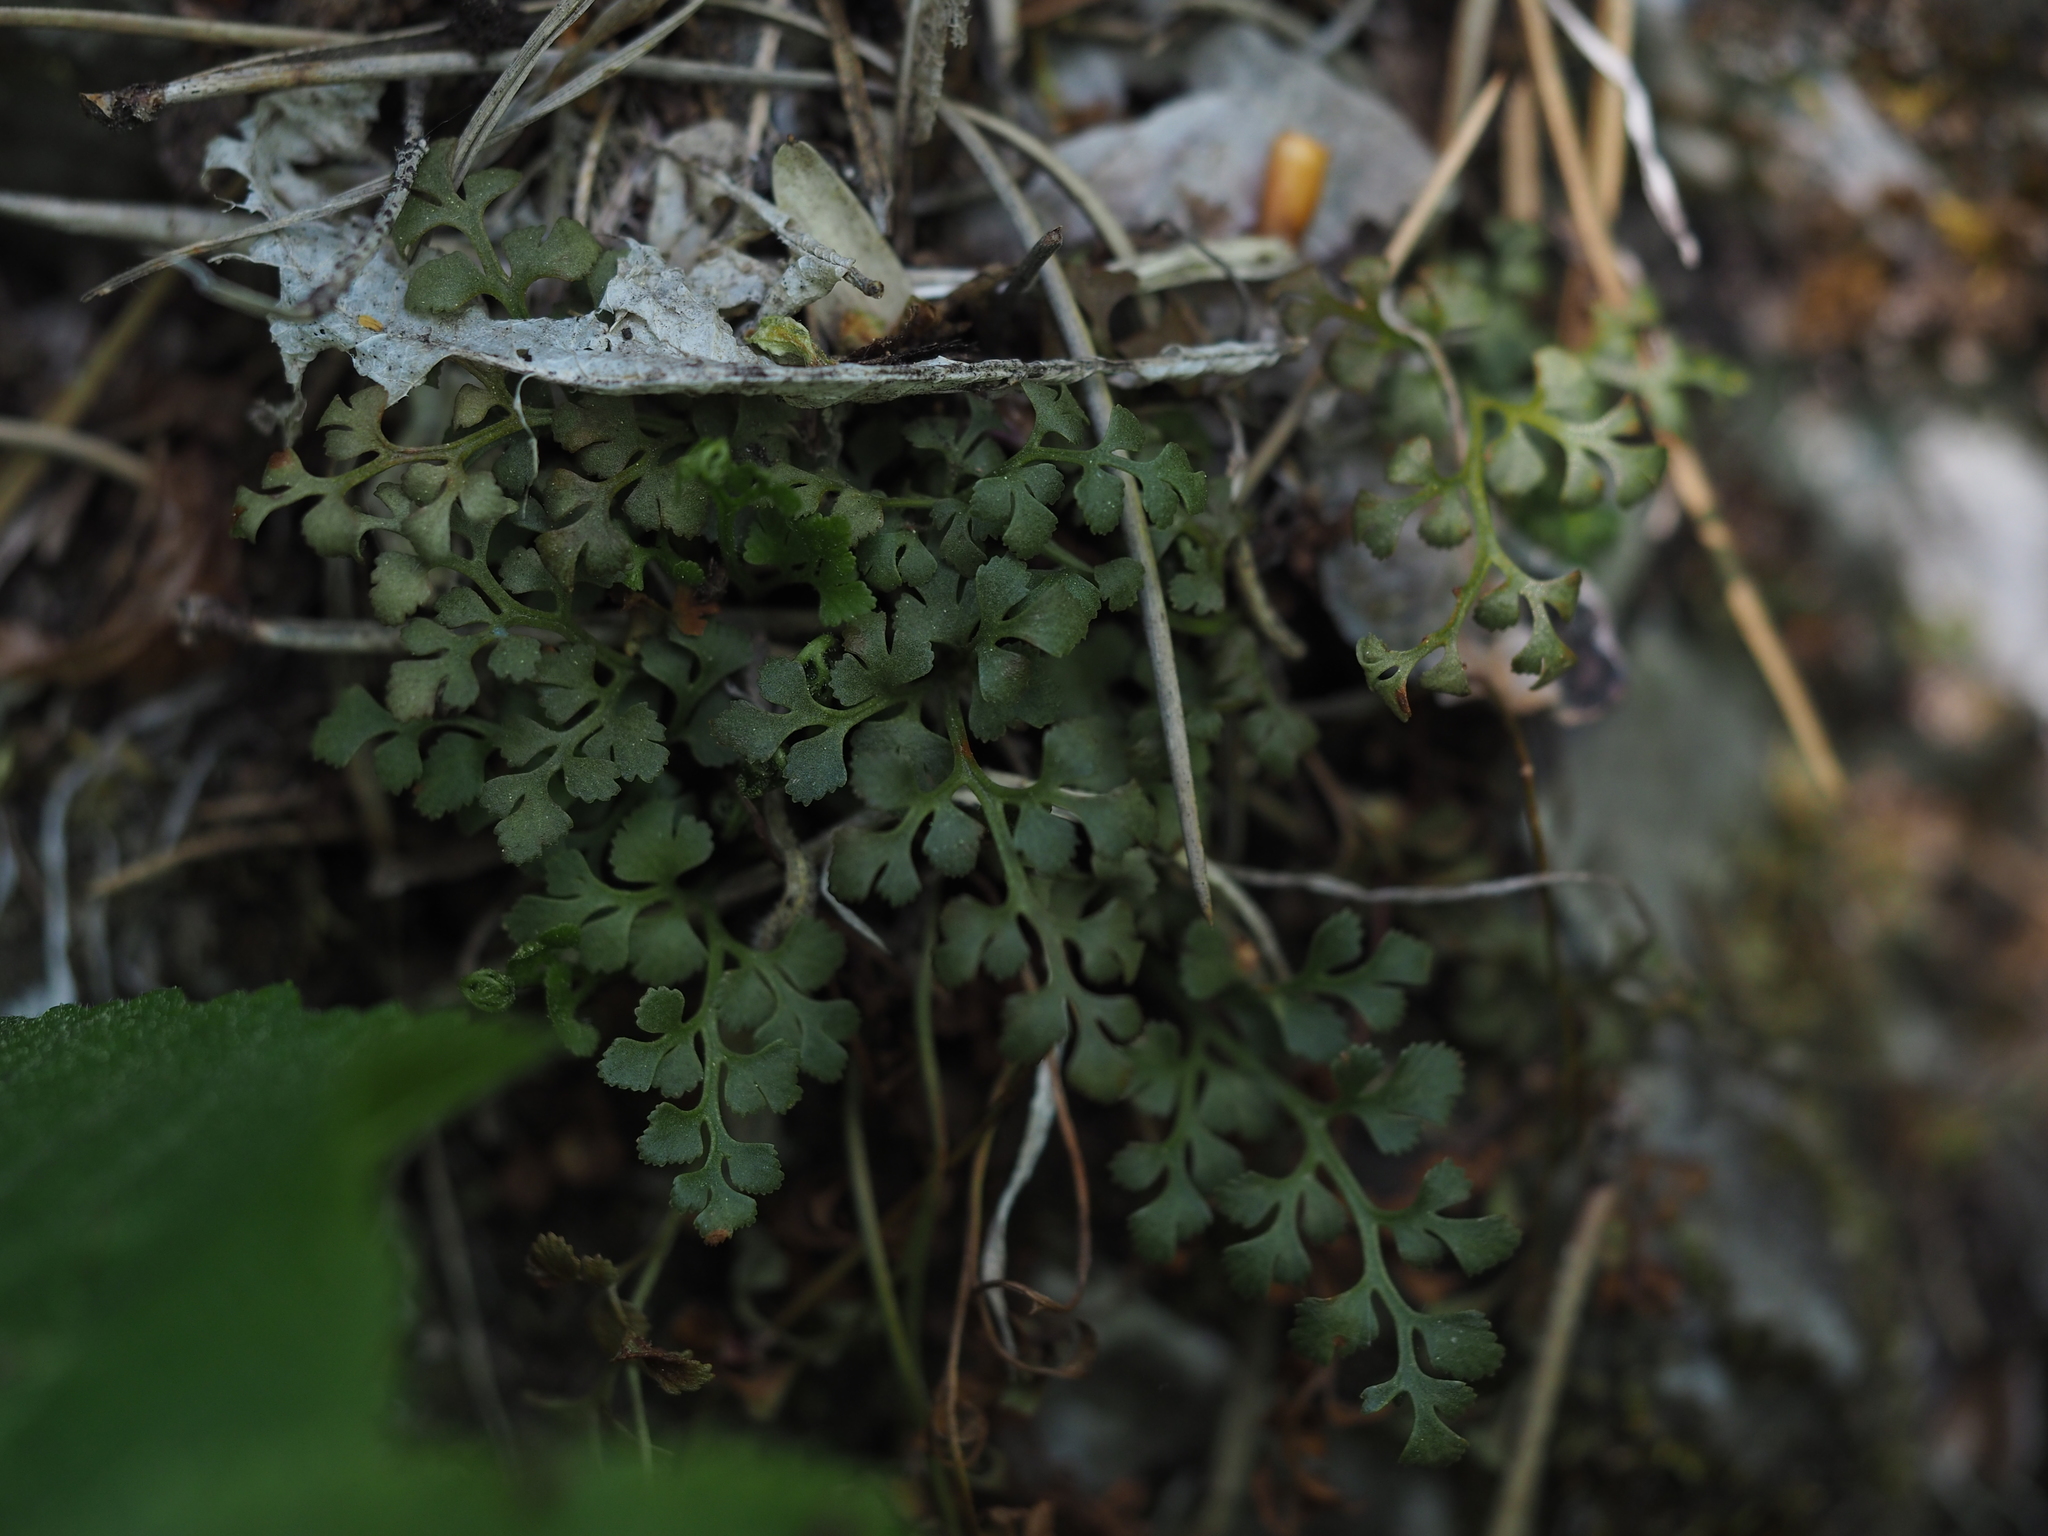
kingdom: Plantae
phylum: Tracheophyta
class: Polypodiopsida
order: Polypodiales
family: Aspleniaceae
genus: Asplenium
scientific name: Asplenium ruta-muraria
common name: Wall-rue
